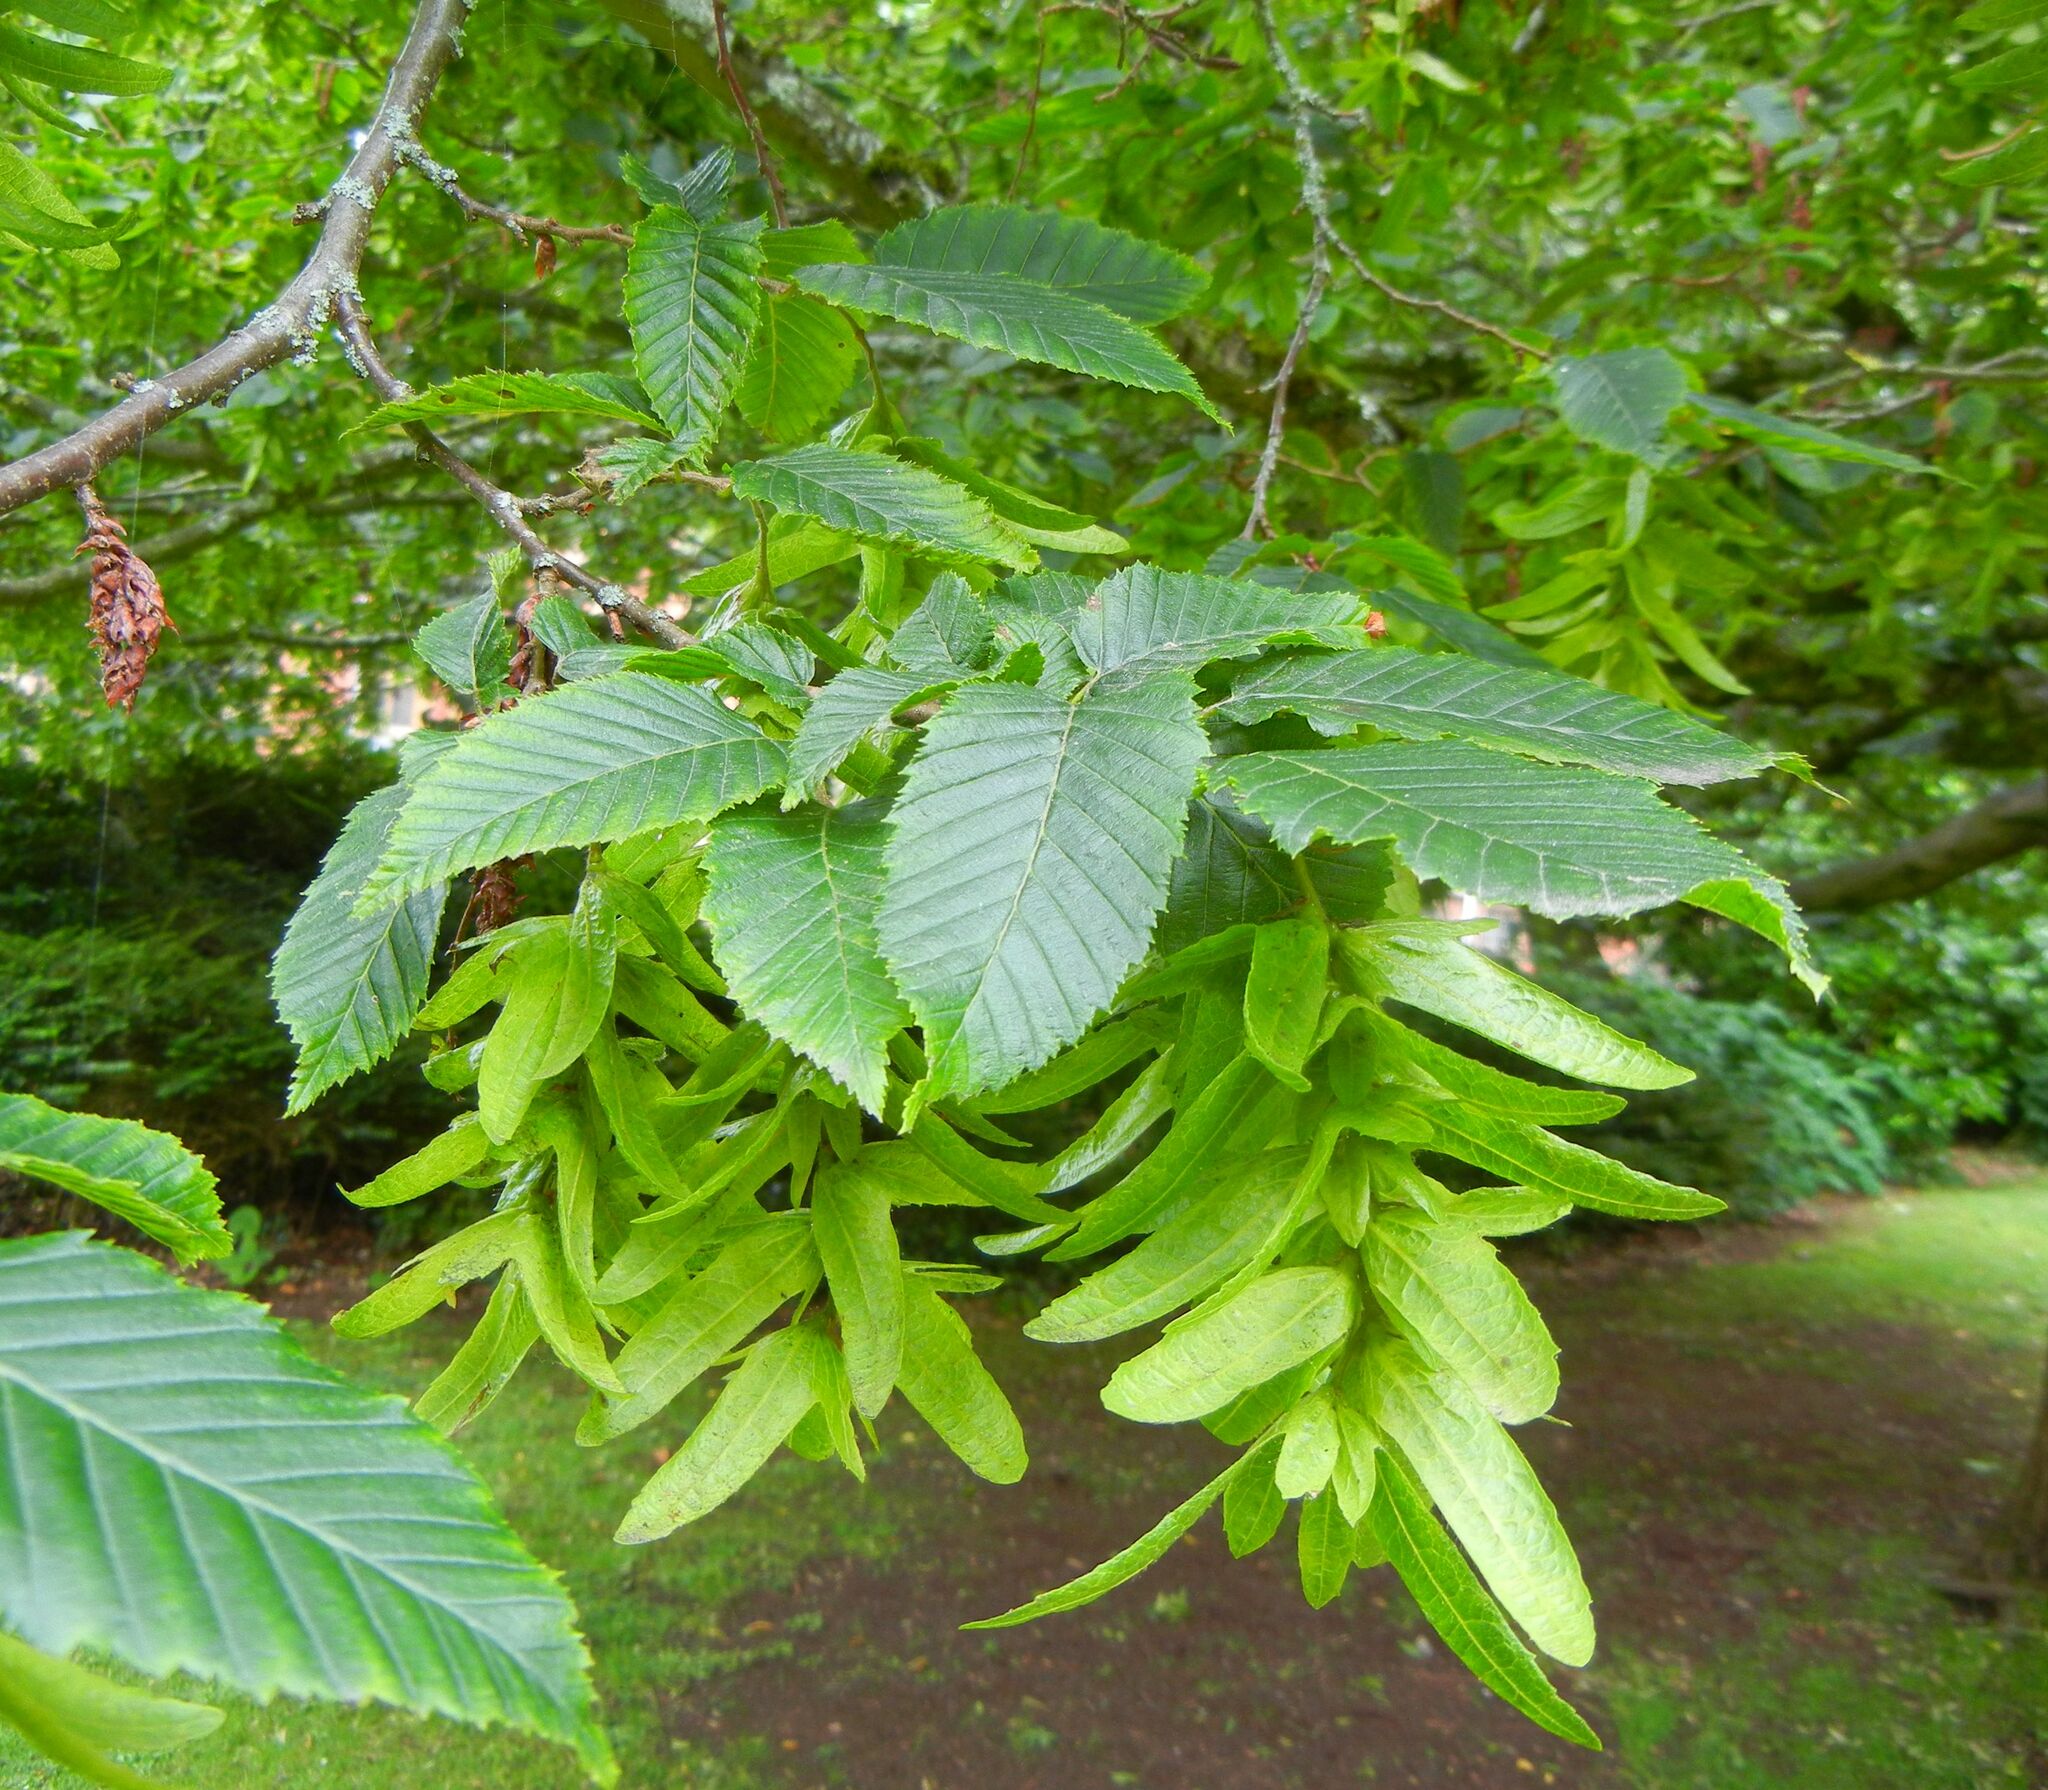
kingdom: Plantae
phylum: Tracheophyta
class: Magnoliopsida
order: Fagales
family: Betulaceae
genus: Carpinus
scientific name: Carpinus betulus
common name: Hornbeam
